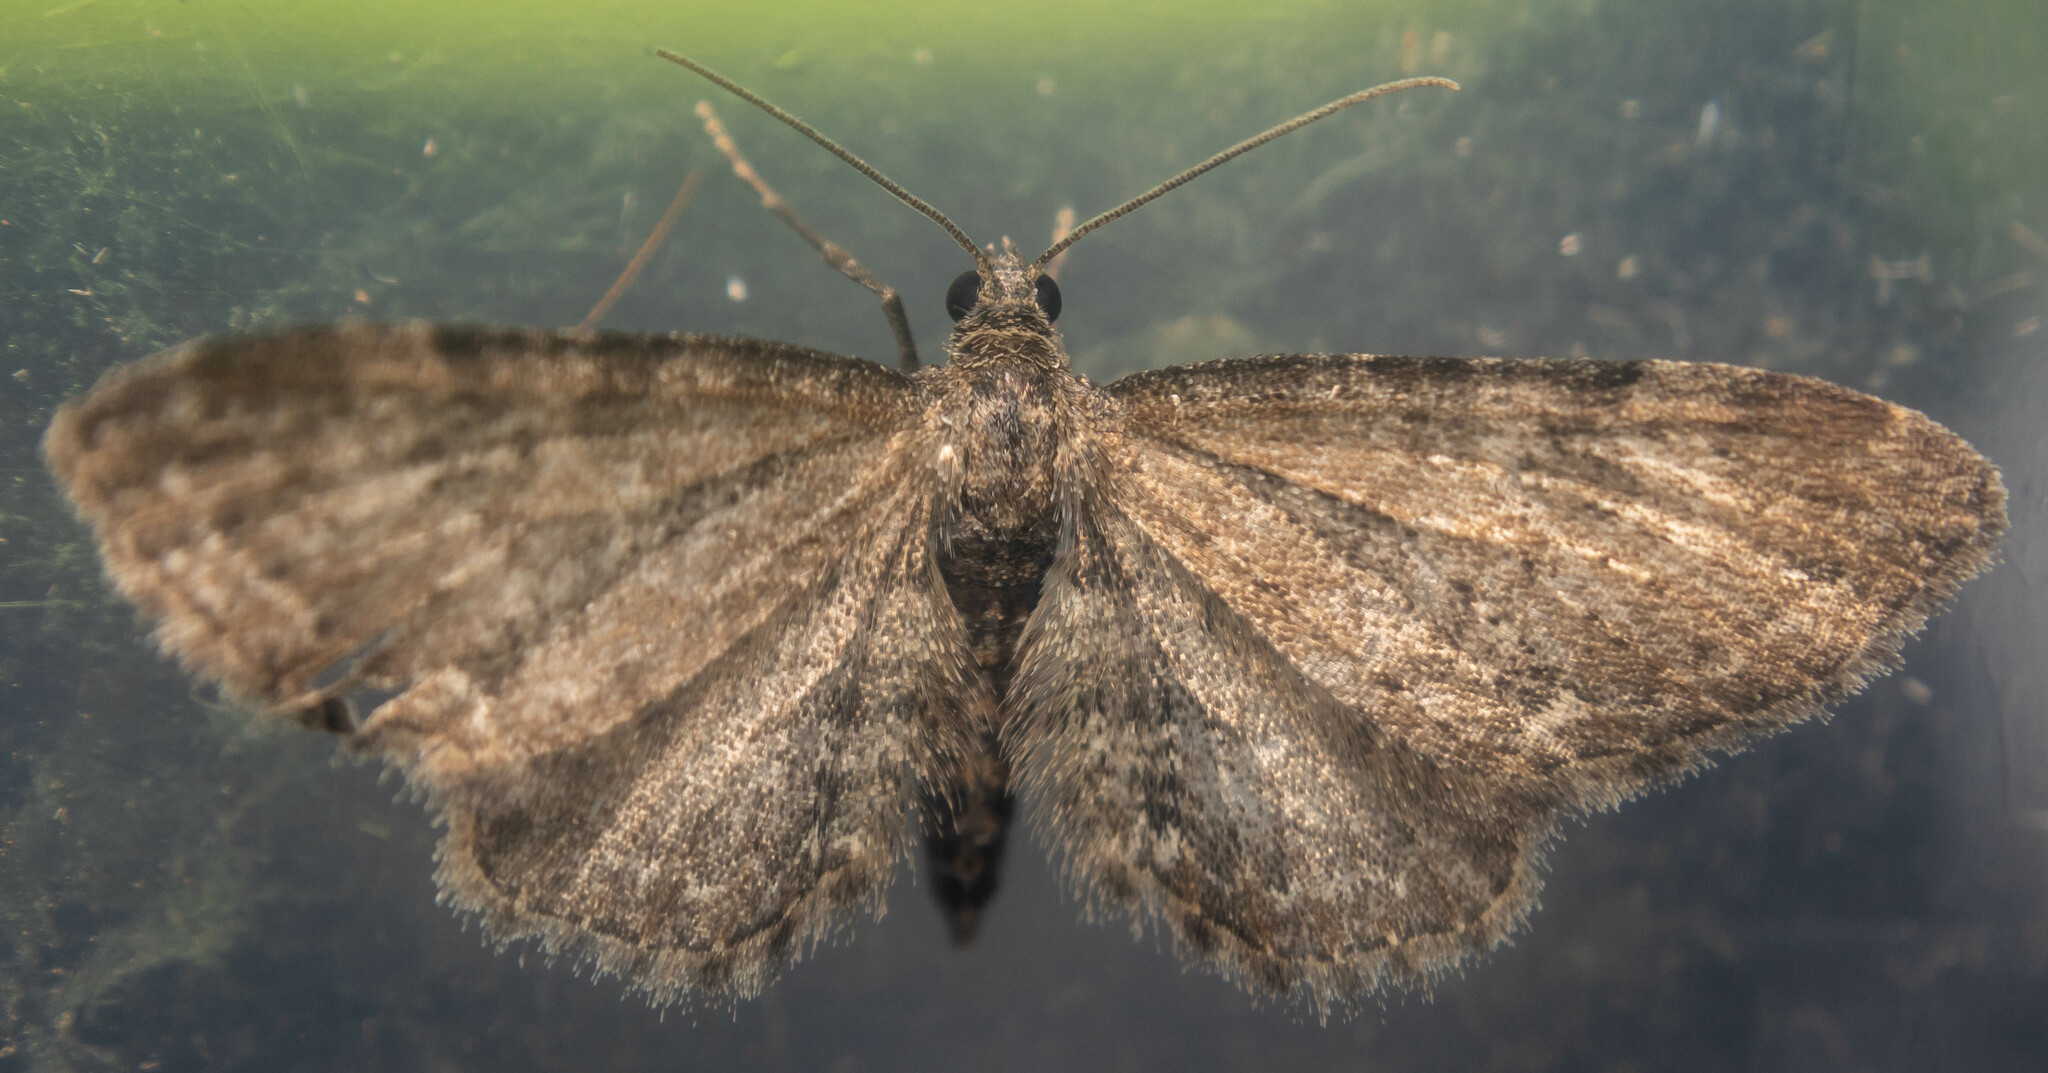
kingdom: Animalia
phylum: Arthropoda
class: Insecta
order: Lepidoptera
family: Geometridae
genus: Eupithecia
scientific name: Eupithecia vulgata
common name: Common pug
